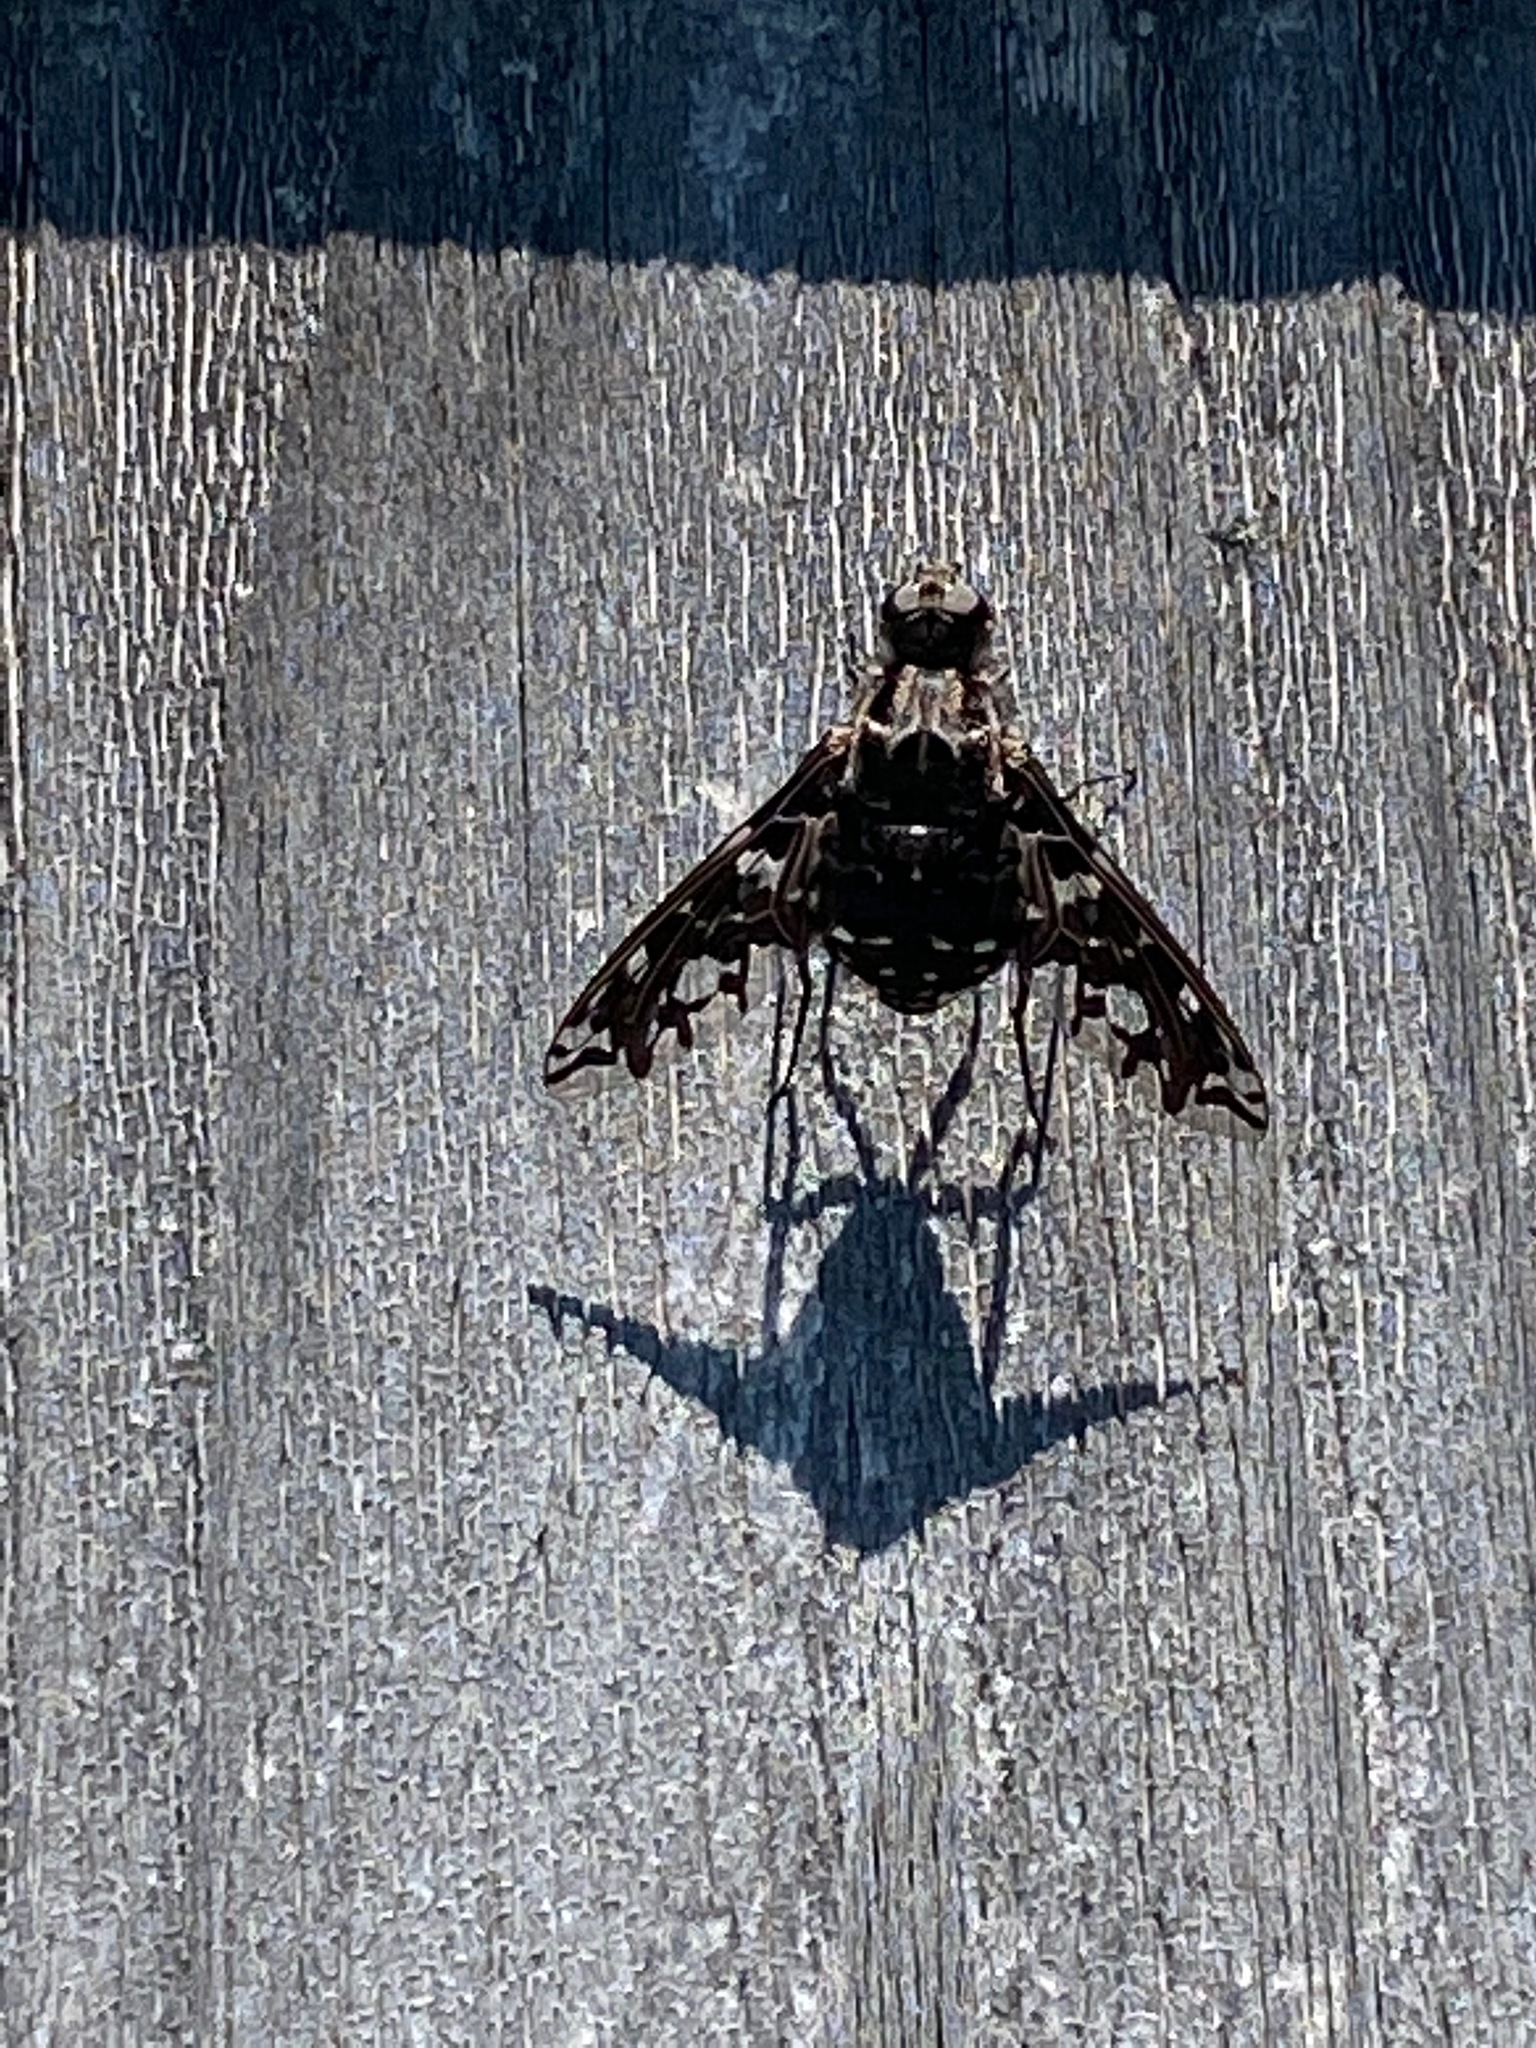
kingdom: Animalia
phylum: Arthropoda
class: Insecta
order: Diptera
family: Bombyliidae
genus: Xenox
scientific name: Xenox tigrinus
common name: Tiger bee fly
